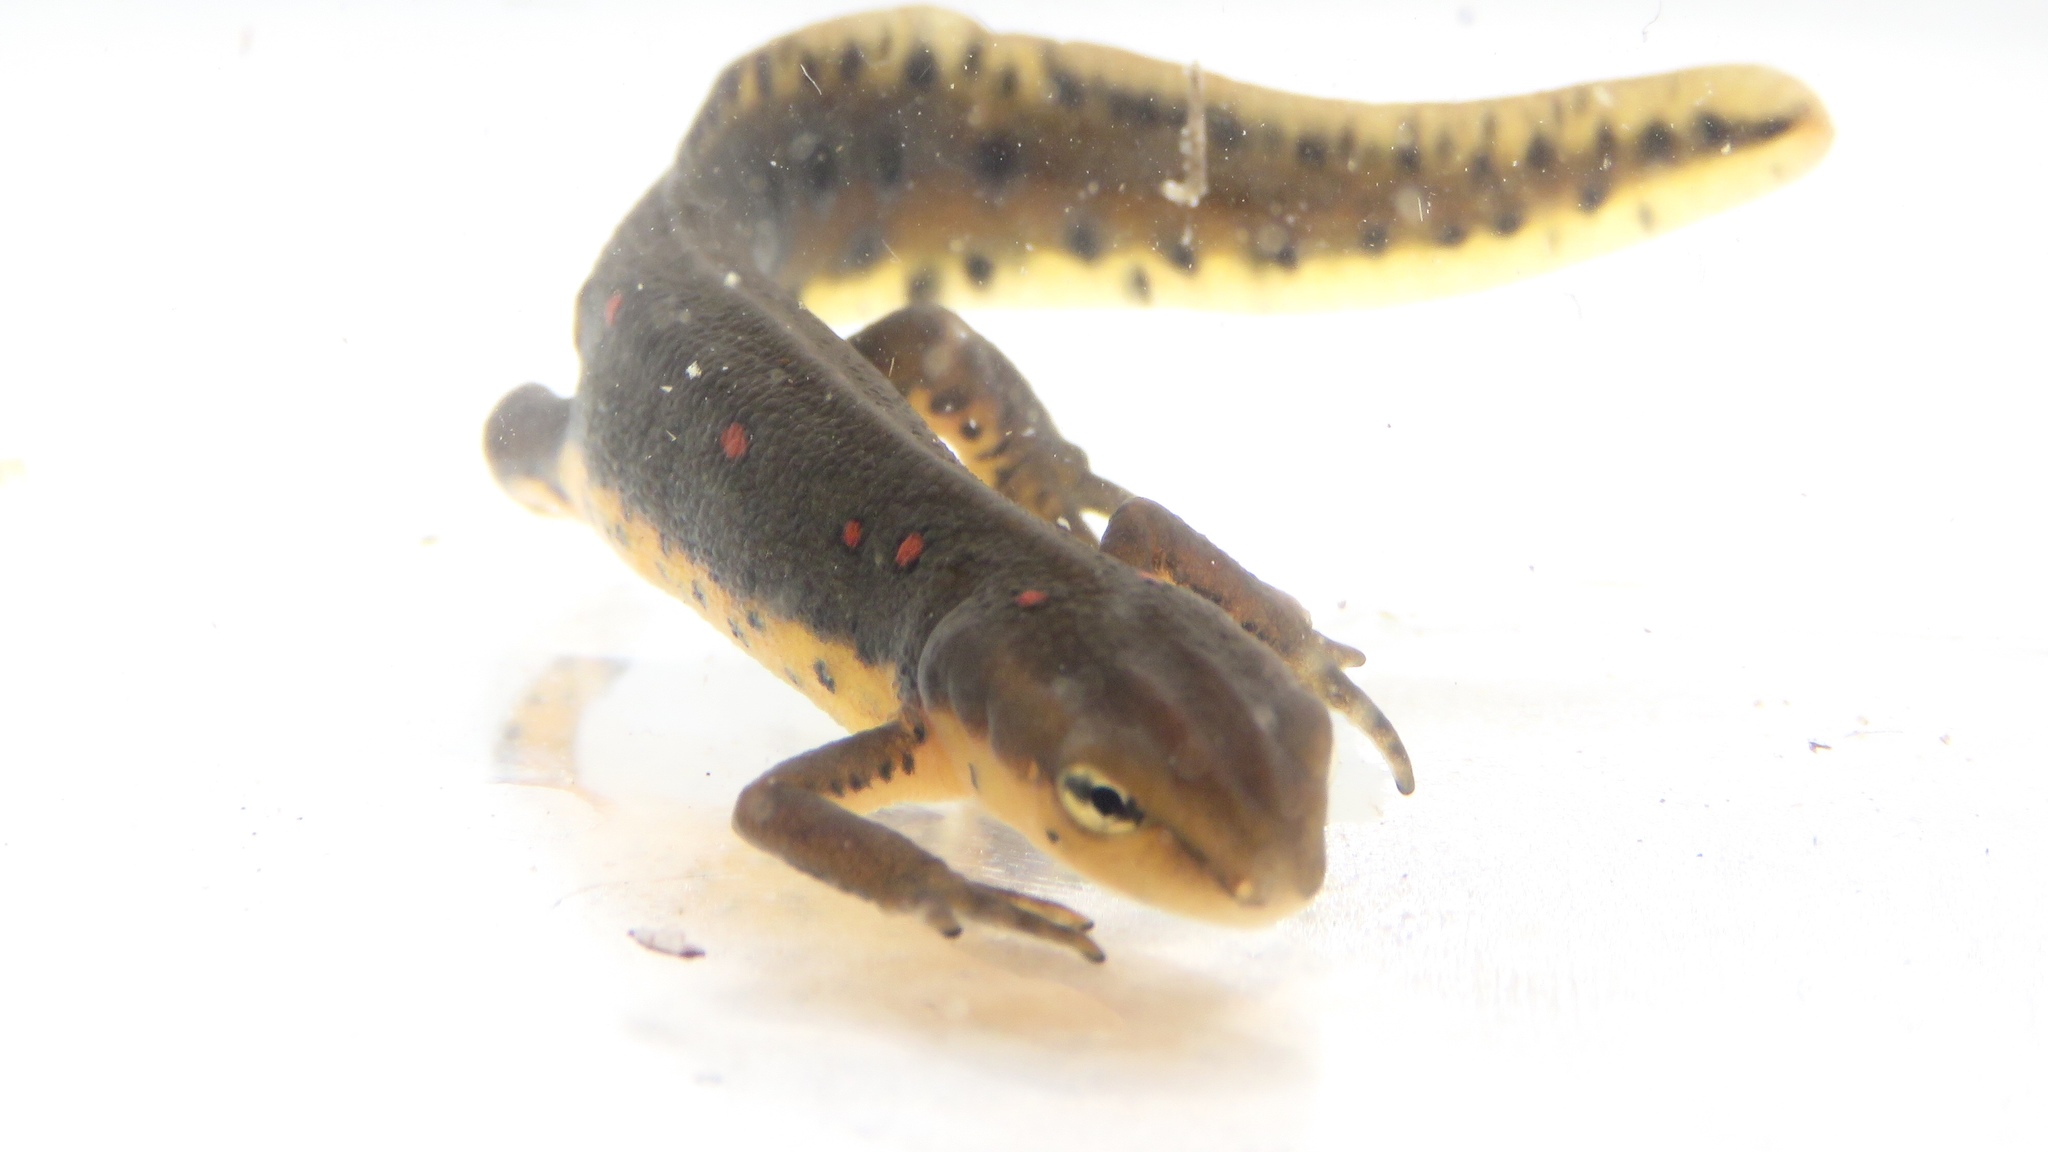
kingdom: Animalia
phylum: Chordata
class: Amphibia
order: Caudata
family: Salamandridae
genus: Notophthalmus
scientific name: Notophthalmus viridescens
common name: Eastern newt
